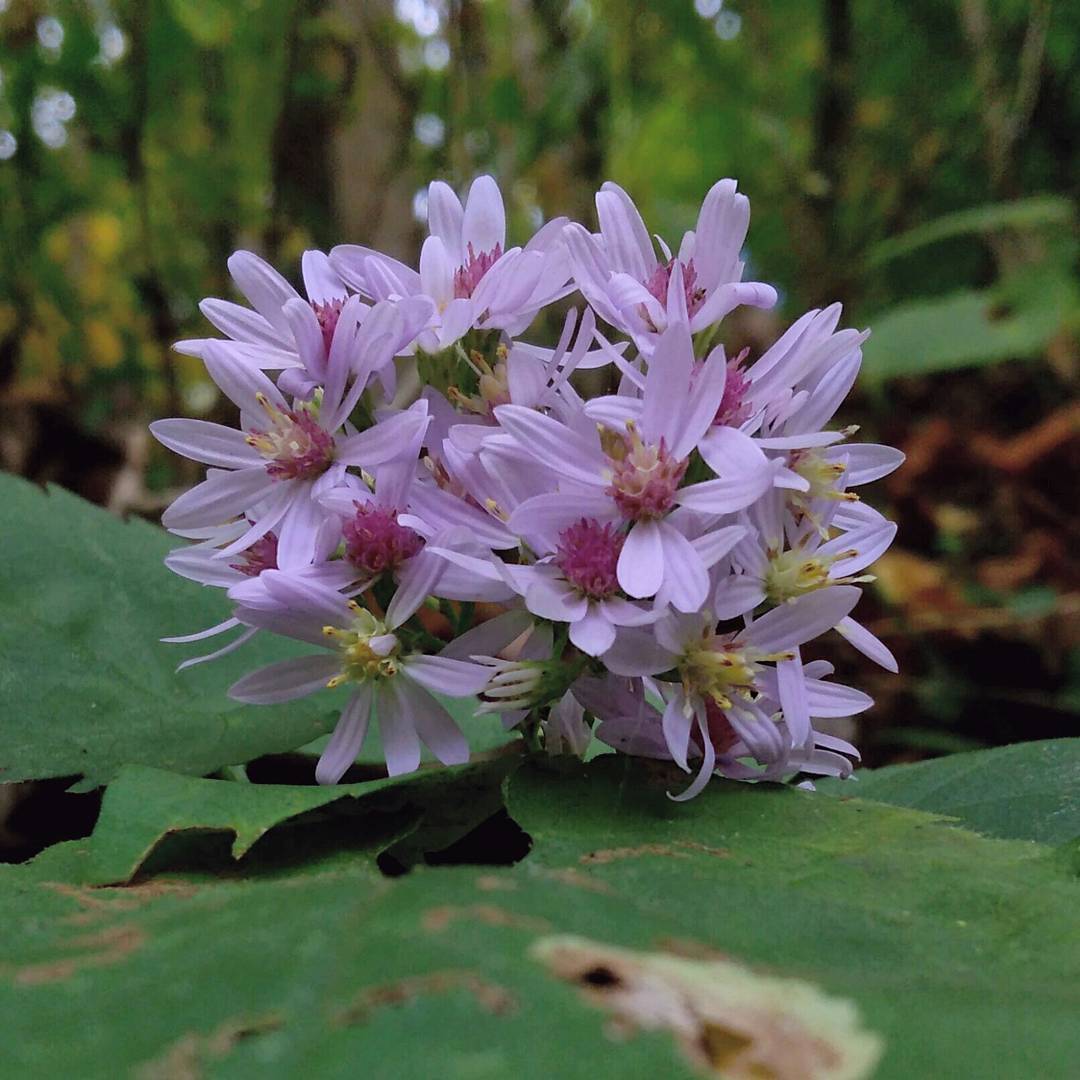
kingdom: Plantae
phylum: Tracheophyta
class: Magnoliopsida
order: Asterales
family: Asteraceae
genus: Symphyotrichum
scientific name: Symphyotrichum cordifolium
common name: Beeweed
